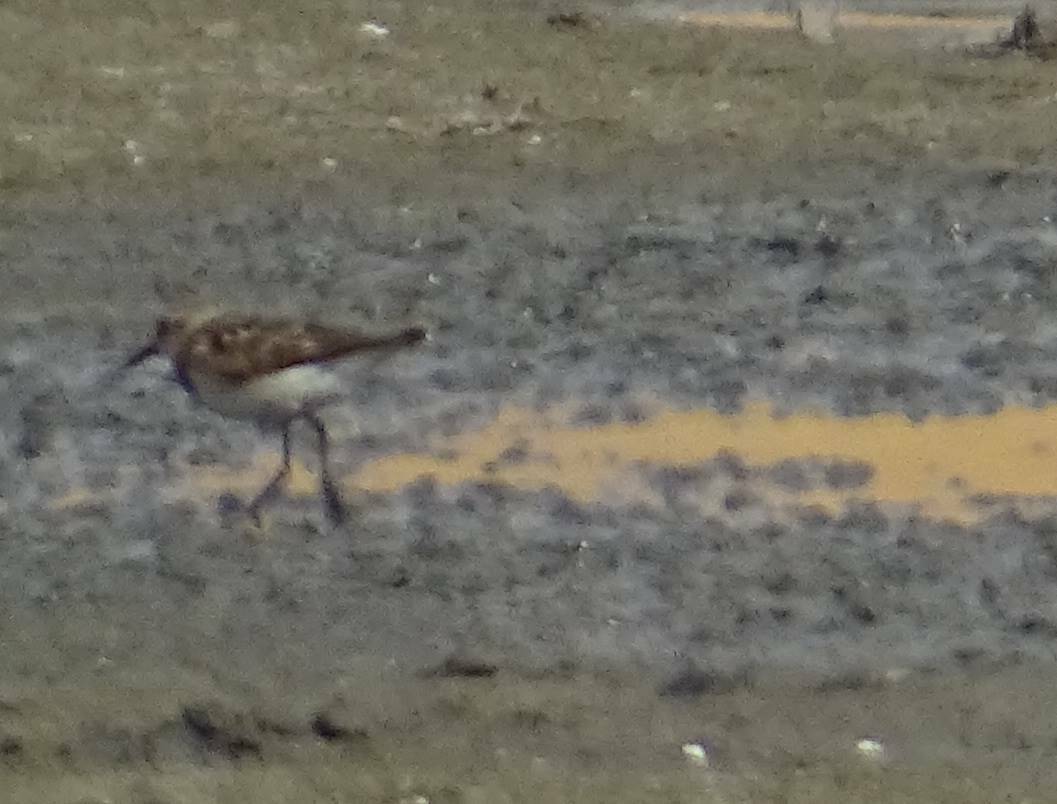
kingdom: Animalia
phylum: Chordata
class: Aves
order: Charadriiformes
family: Scolopacidae
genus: Calidris
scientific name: Calidris minuta
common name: Little stint
